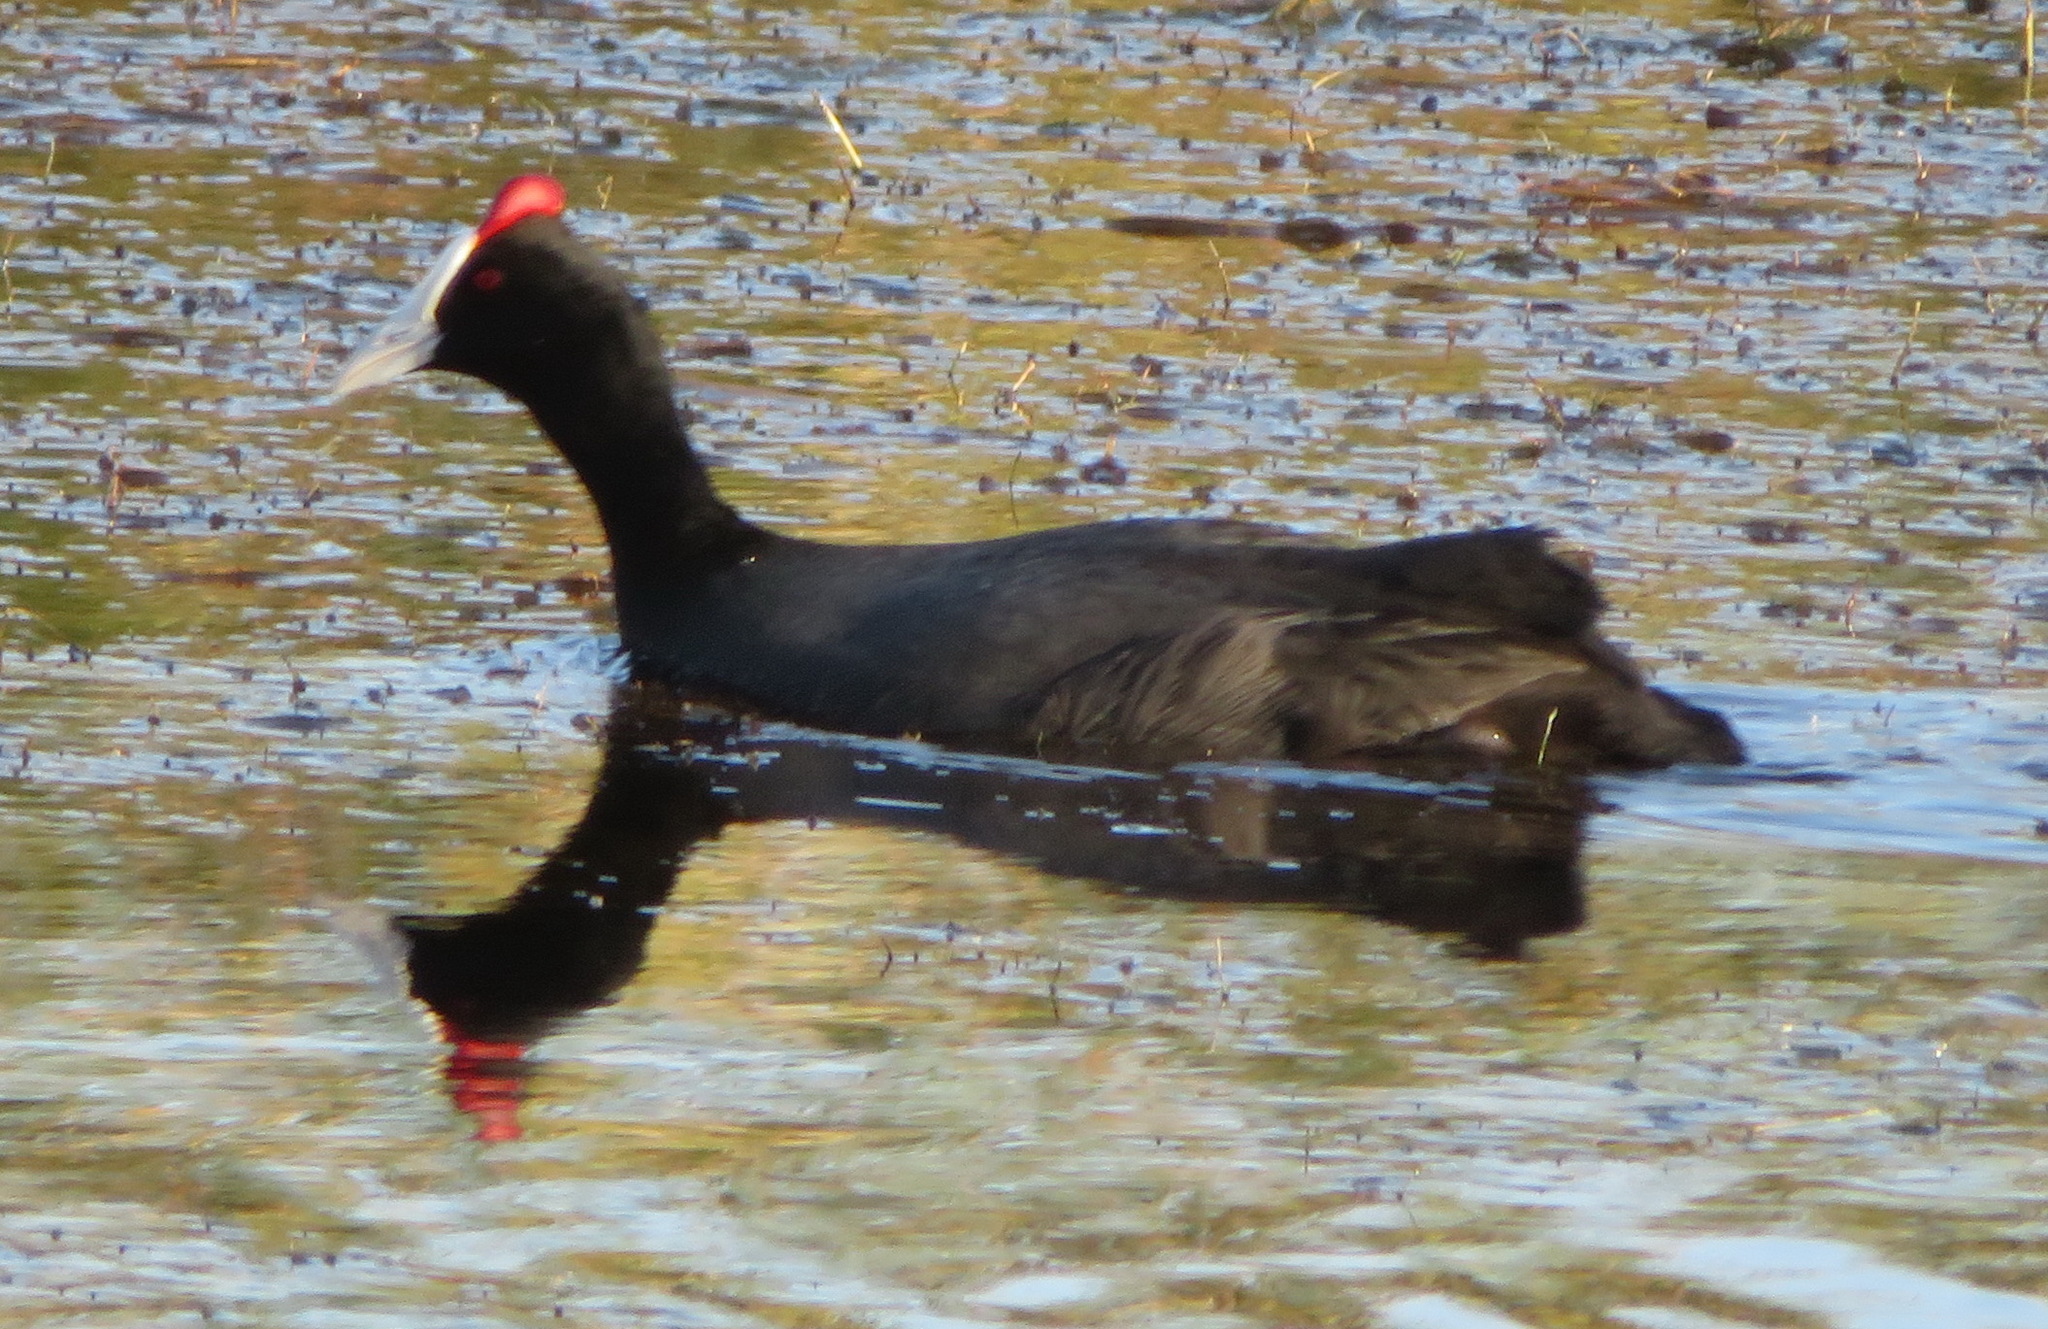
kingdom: Animalia
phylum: Chordata
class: Aves
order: Gruiformes
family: Rallidae
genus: Fulica
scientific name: Fulica cristata
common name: Red-knobbed coot
